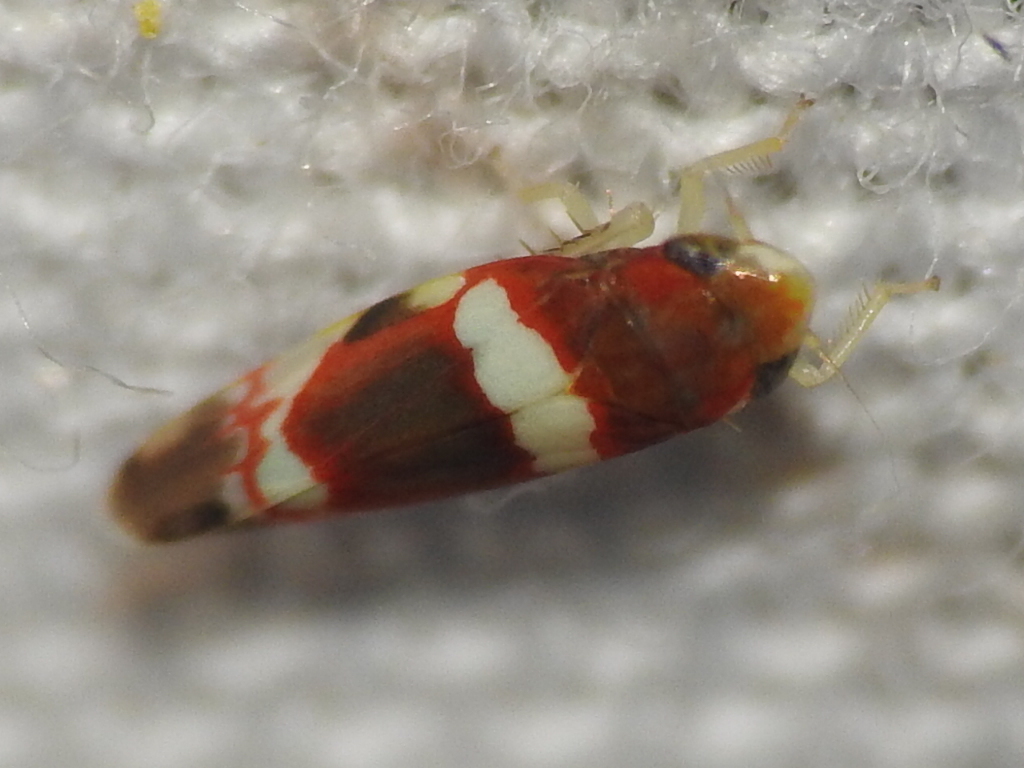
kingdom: Animalia
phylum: Arthropoda
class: Insecta
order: Hemiptera
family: Cicadellidae
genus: Erythroneura
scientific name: Erythroneura vitis
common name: Grapevine leafhopper
